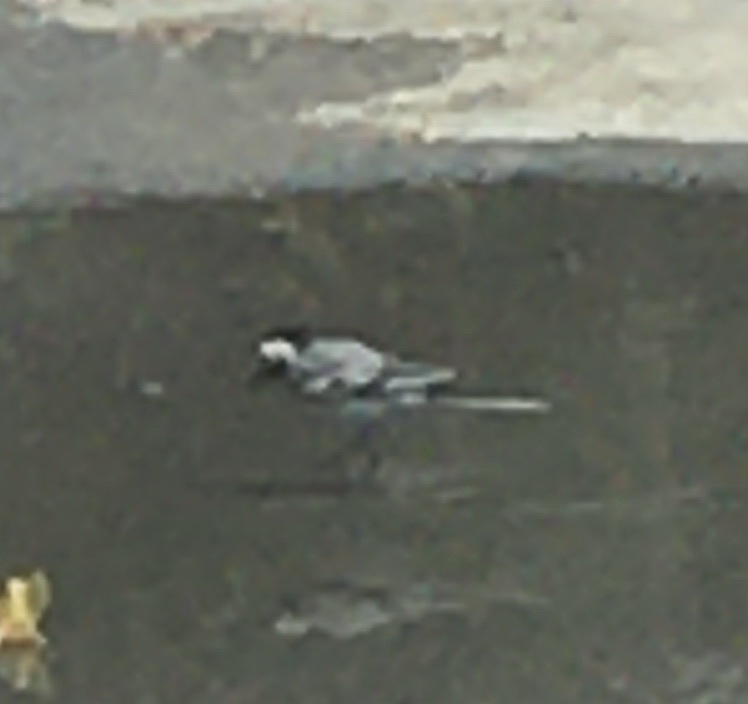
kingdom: Animalia
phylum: Chordata
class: Aves
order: Passeriformes
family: Motacillidae
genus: Motacilla
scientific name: Motacilla alba
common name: White wagtail
